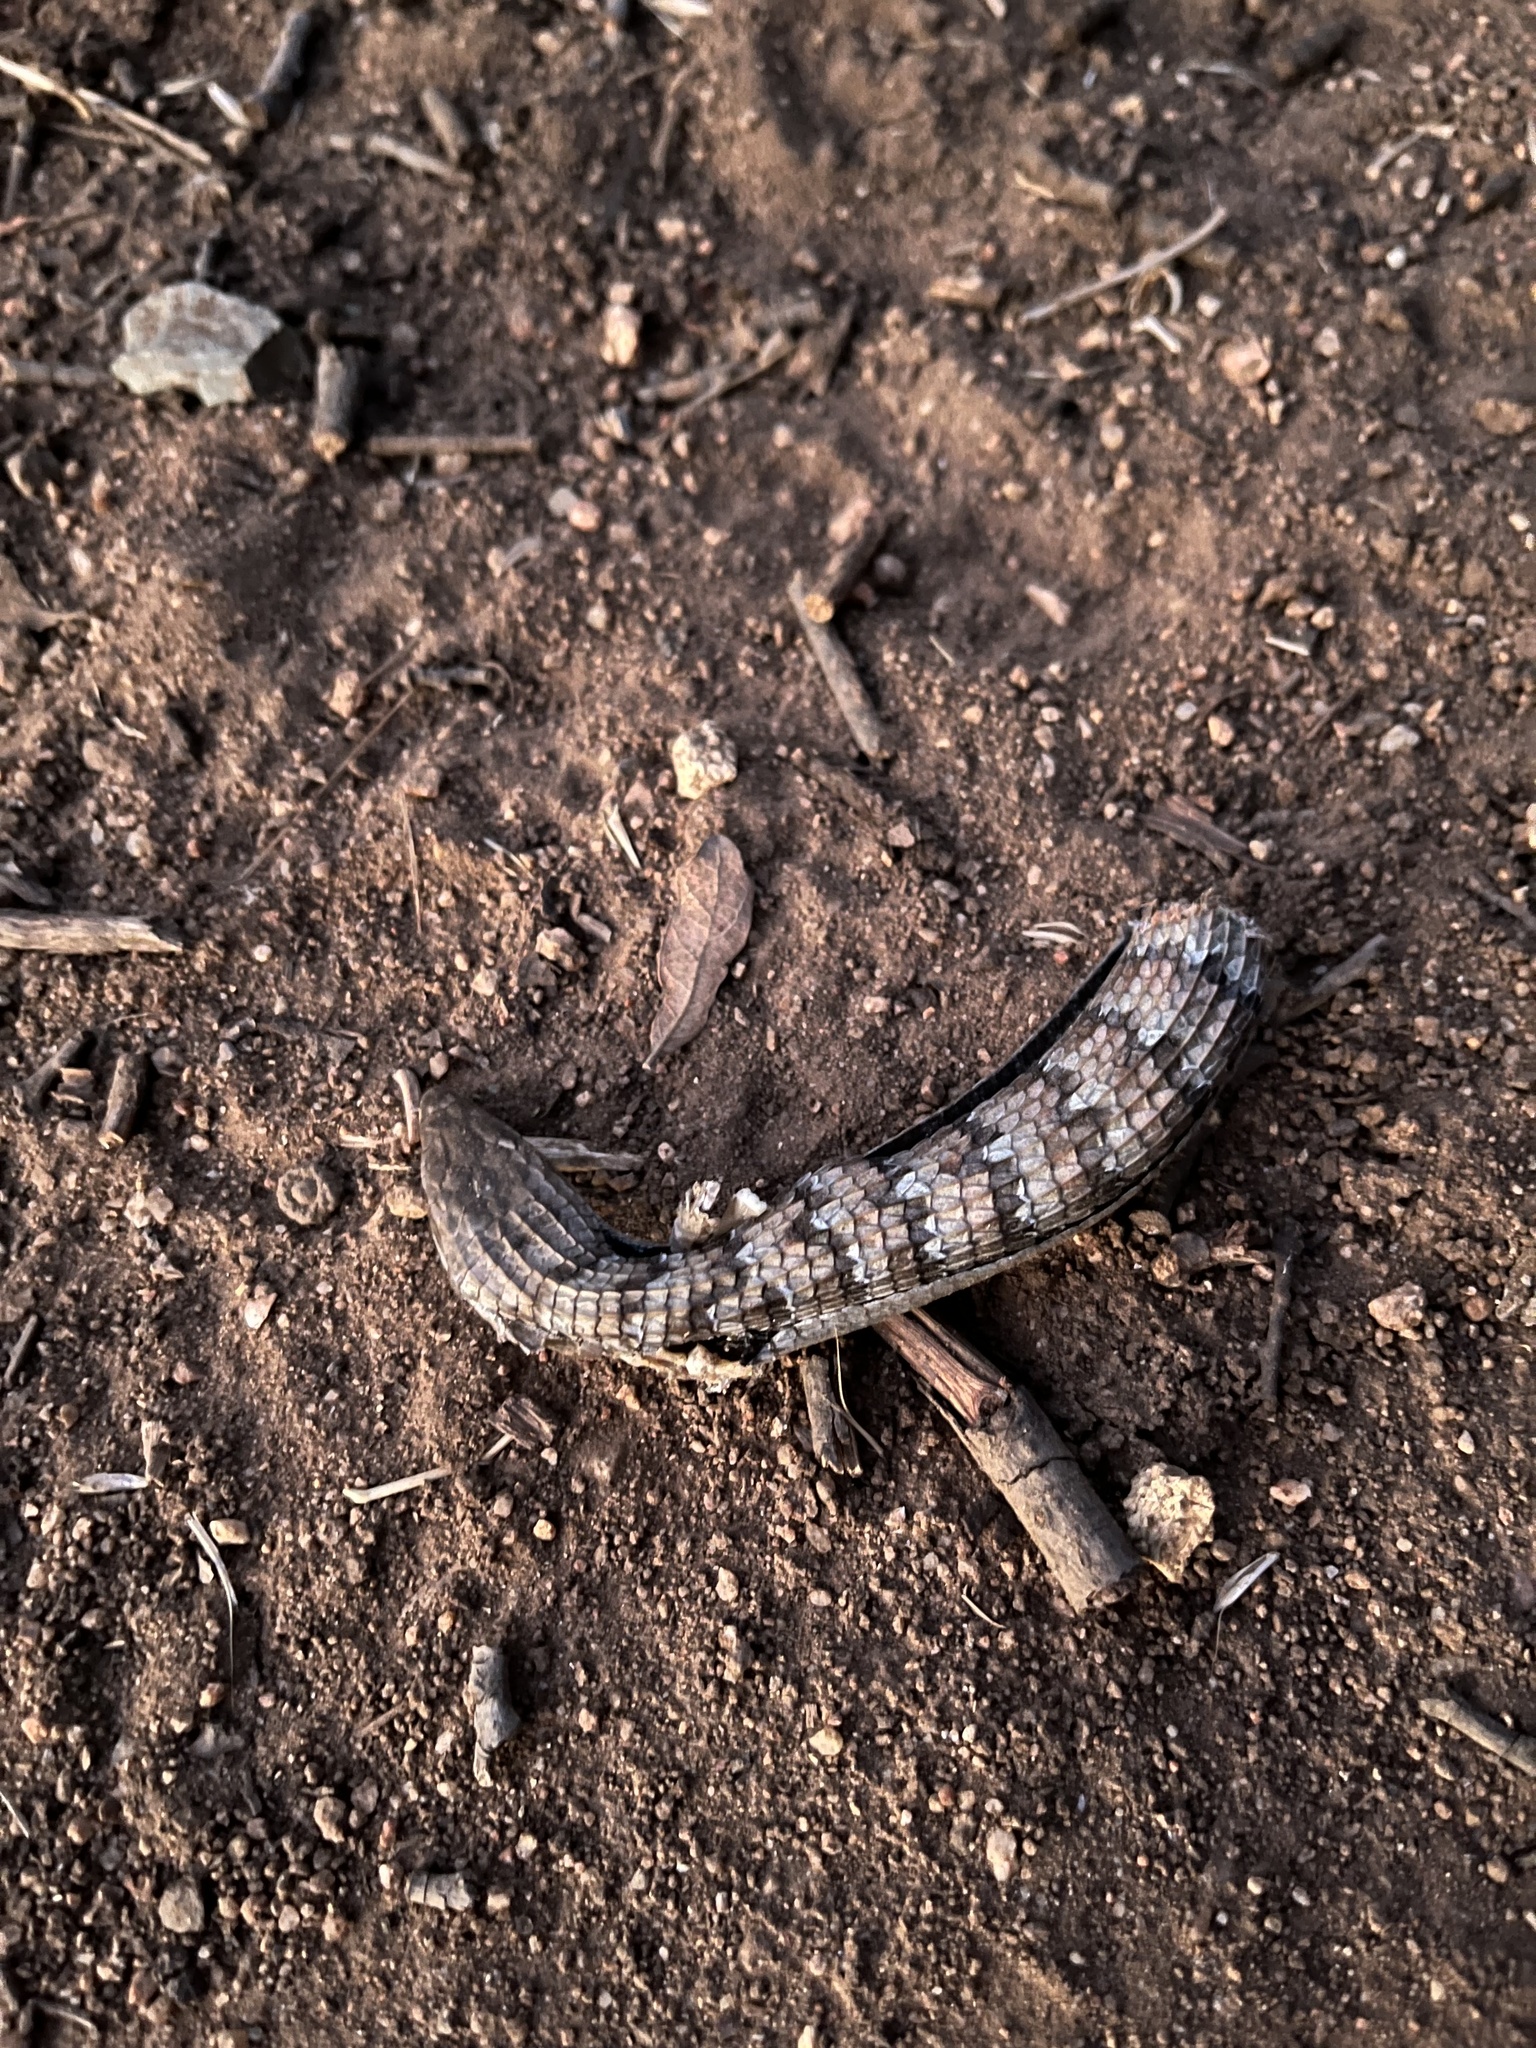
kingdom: Animalia
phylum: Chordata
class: Squamata
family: Anguidae
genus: Elgaria
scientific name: Elgaria multicarinata
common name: Southern alligator lizard
